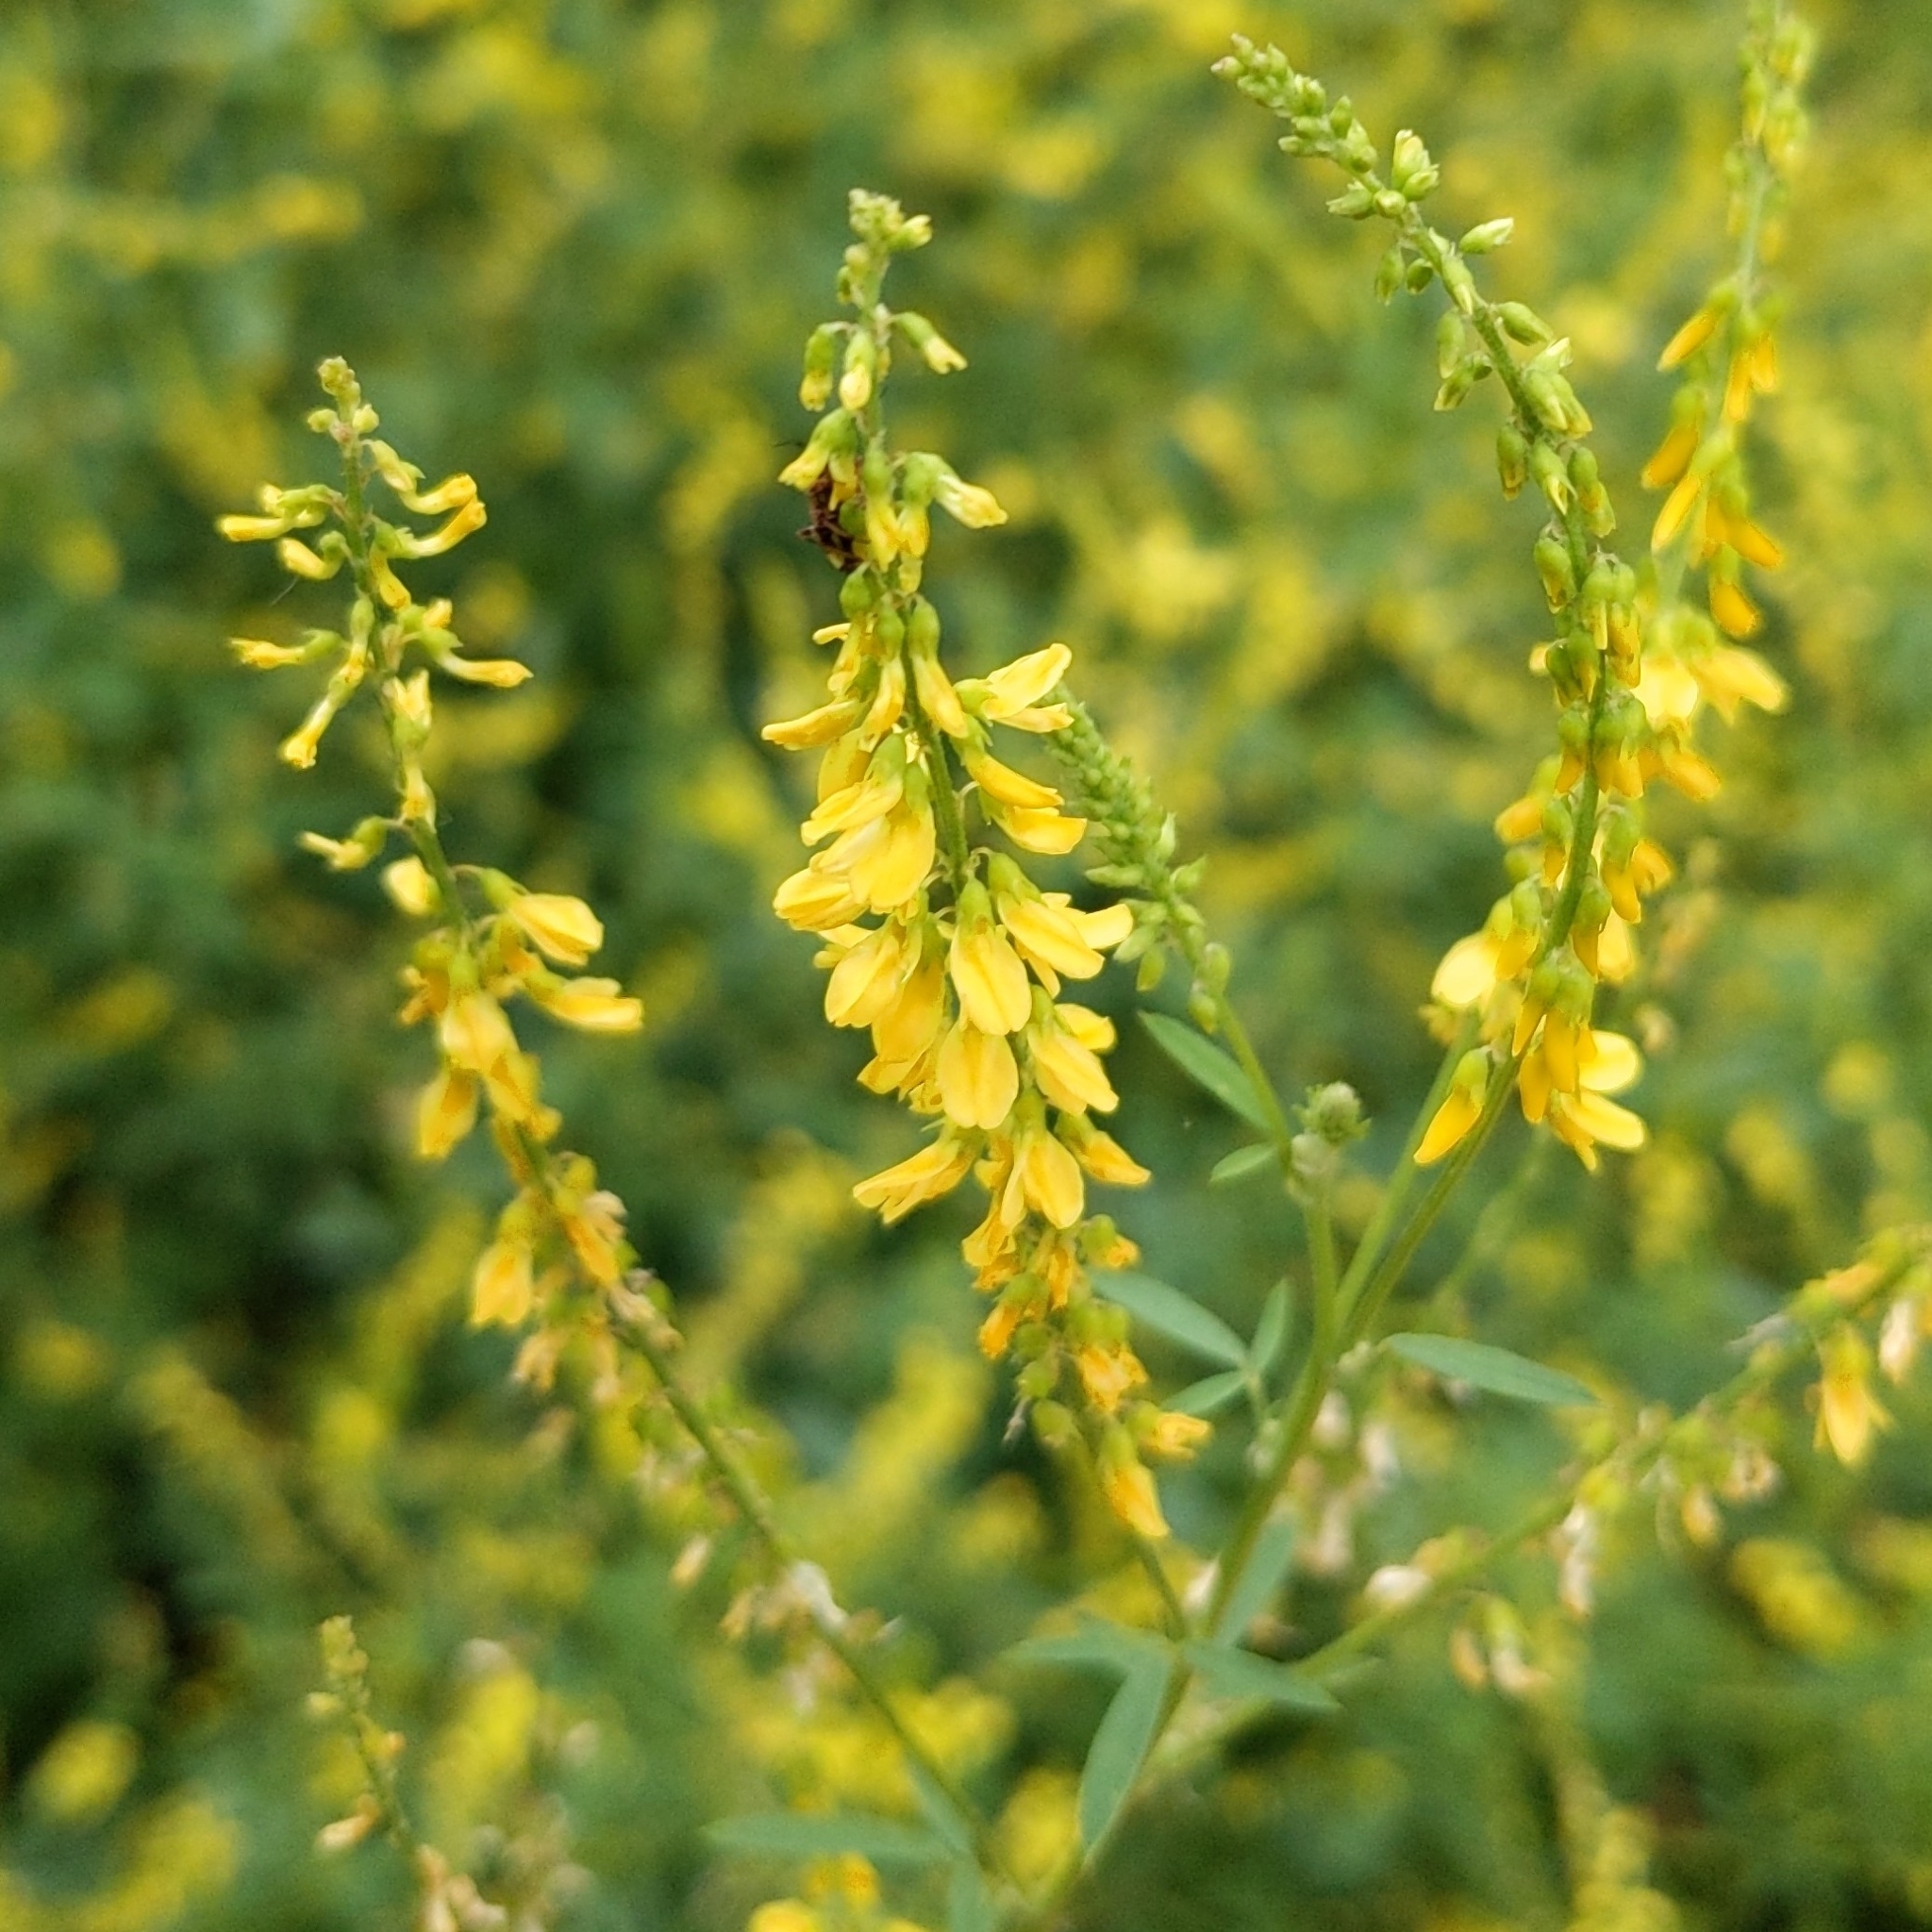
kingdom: Plantae
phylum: Tracheophyta
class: Magnoliopsida
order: Fabales
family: Fabaceae
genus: Melilotus
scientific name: Melilotus officinalis
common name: Sweetclover
